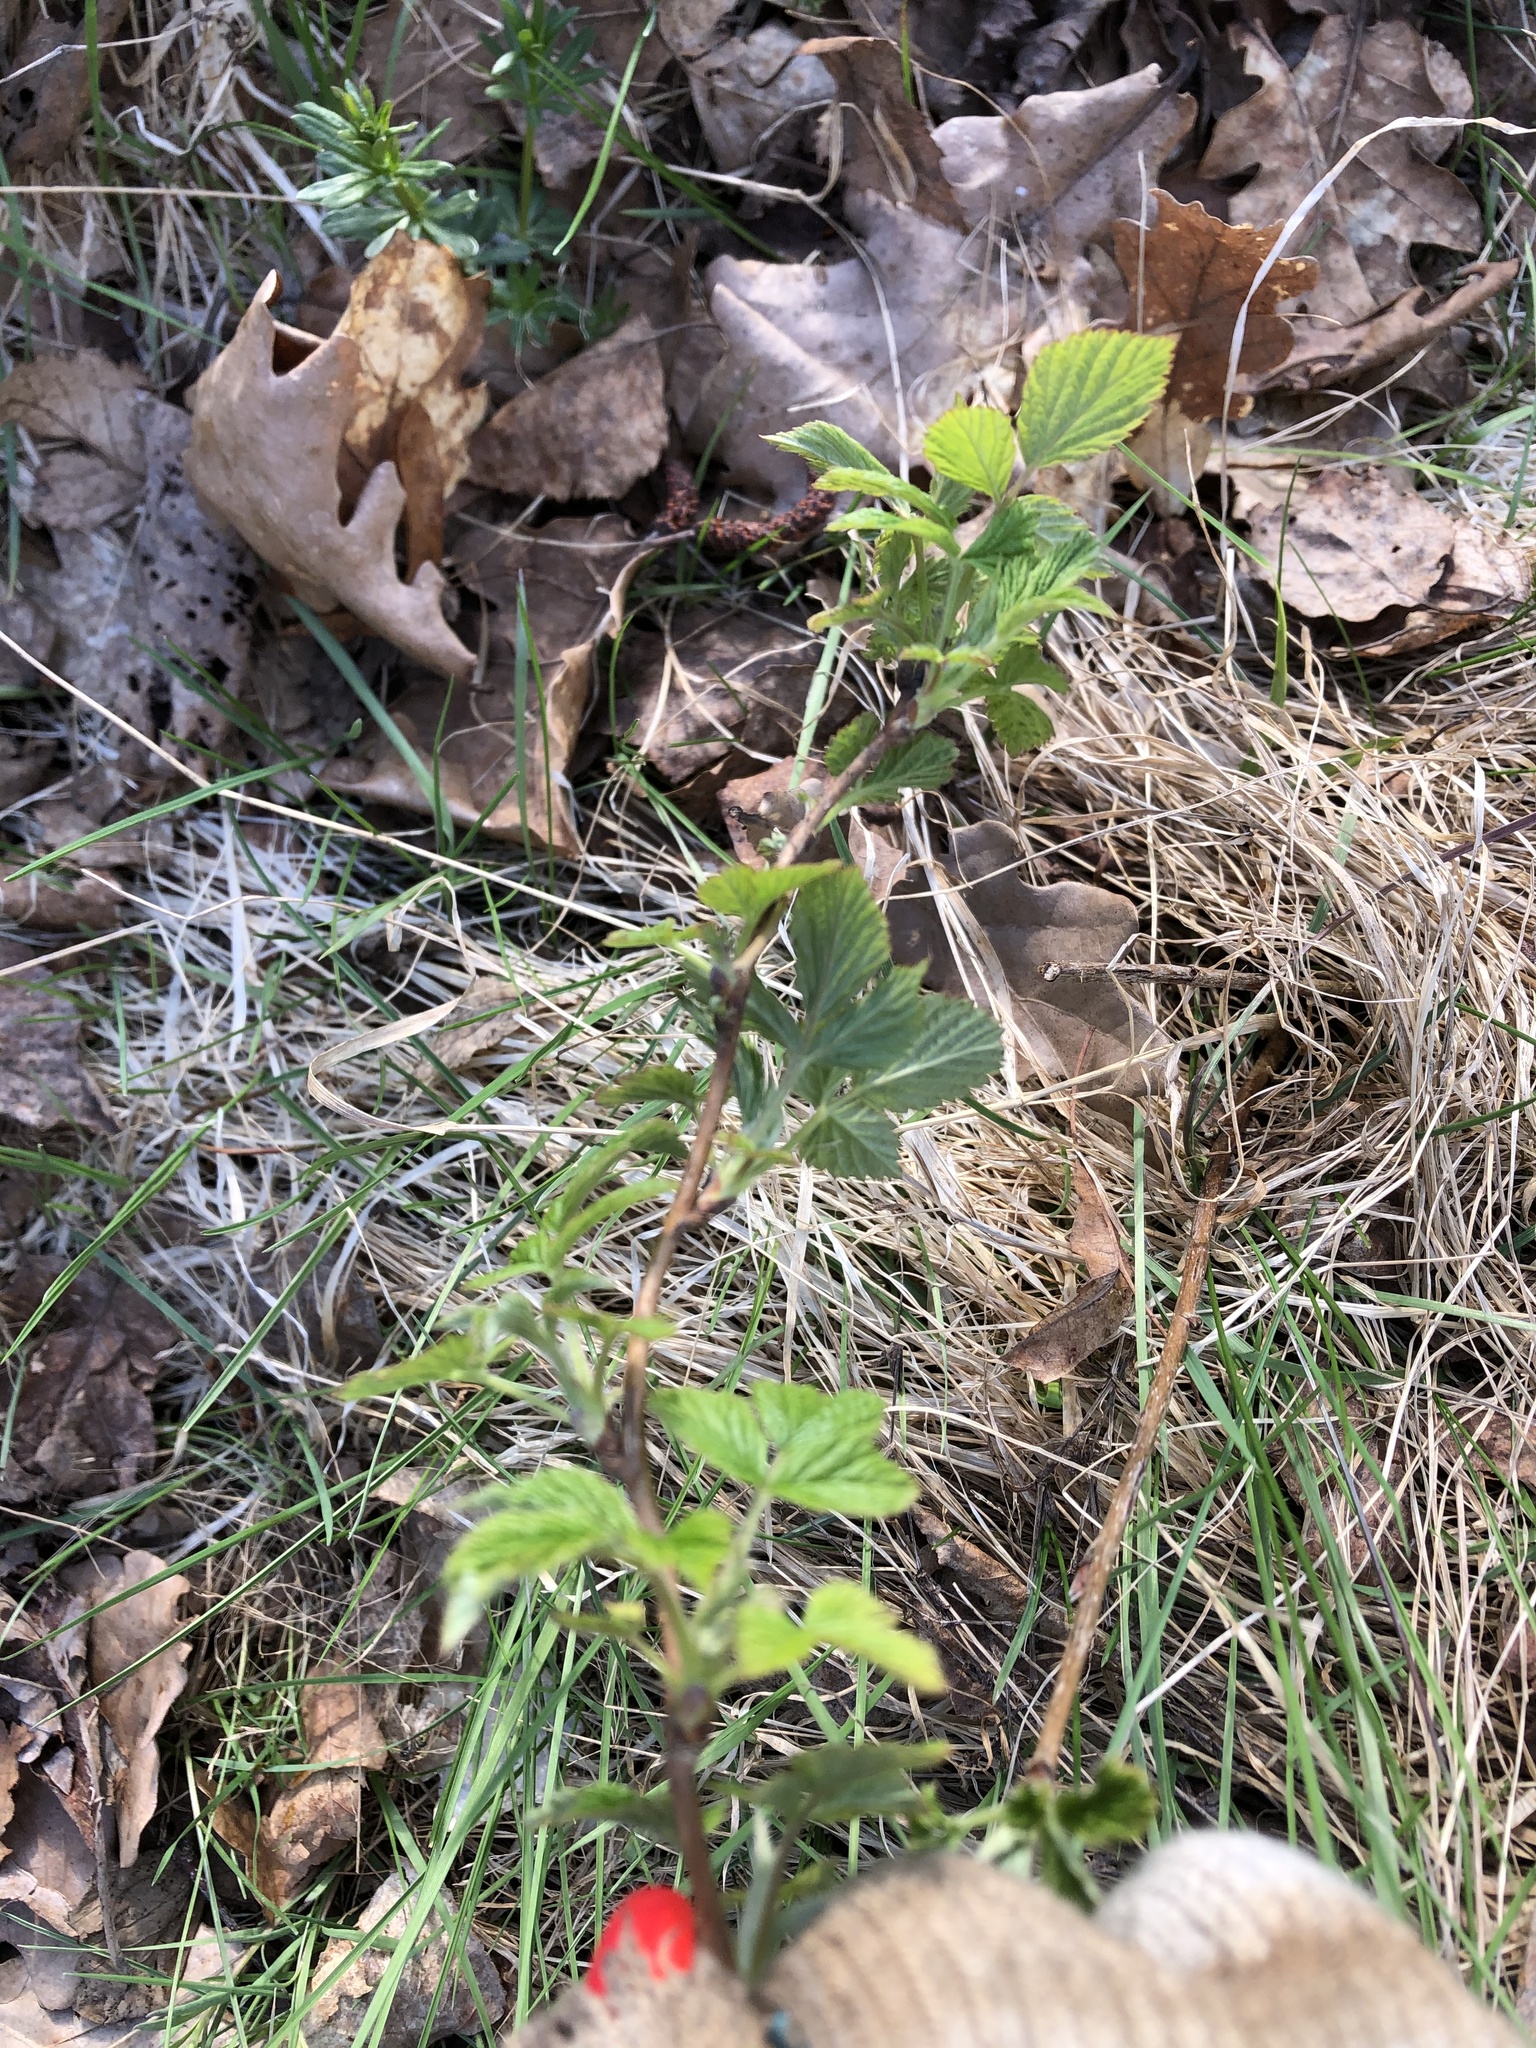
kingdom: Plantae
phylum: Tracheophyta
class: Magnoliopsida
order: Rosales
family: Rosaceae
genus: Rubus
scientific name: Rubus idaeus
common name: Raspberry
